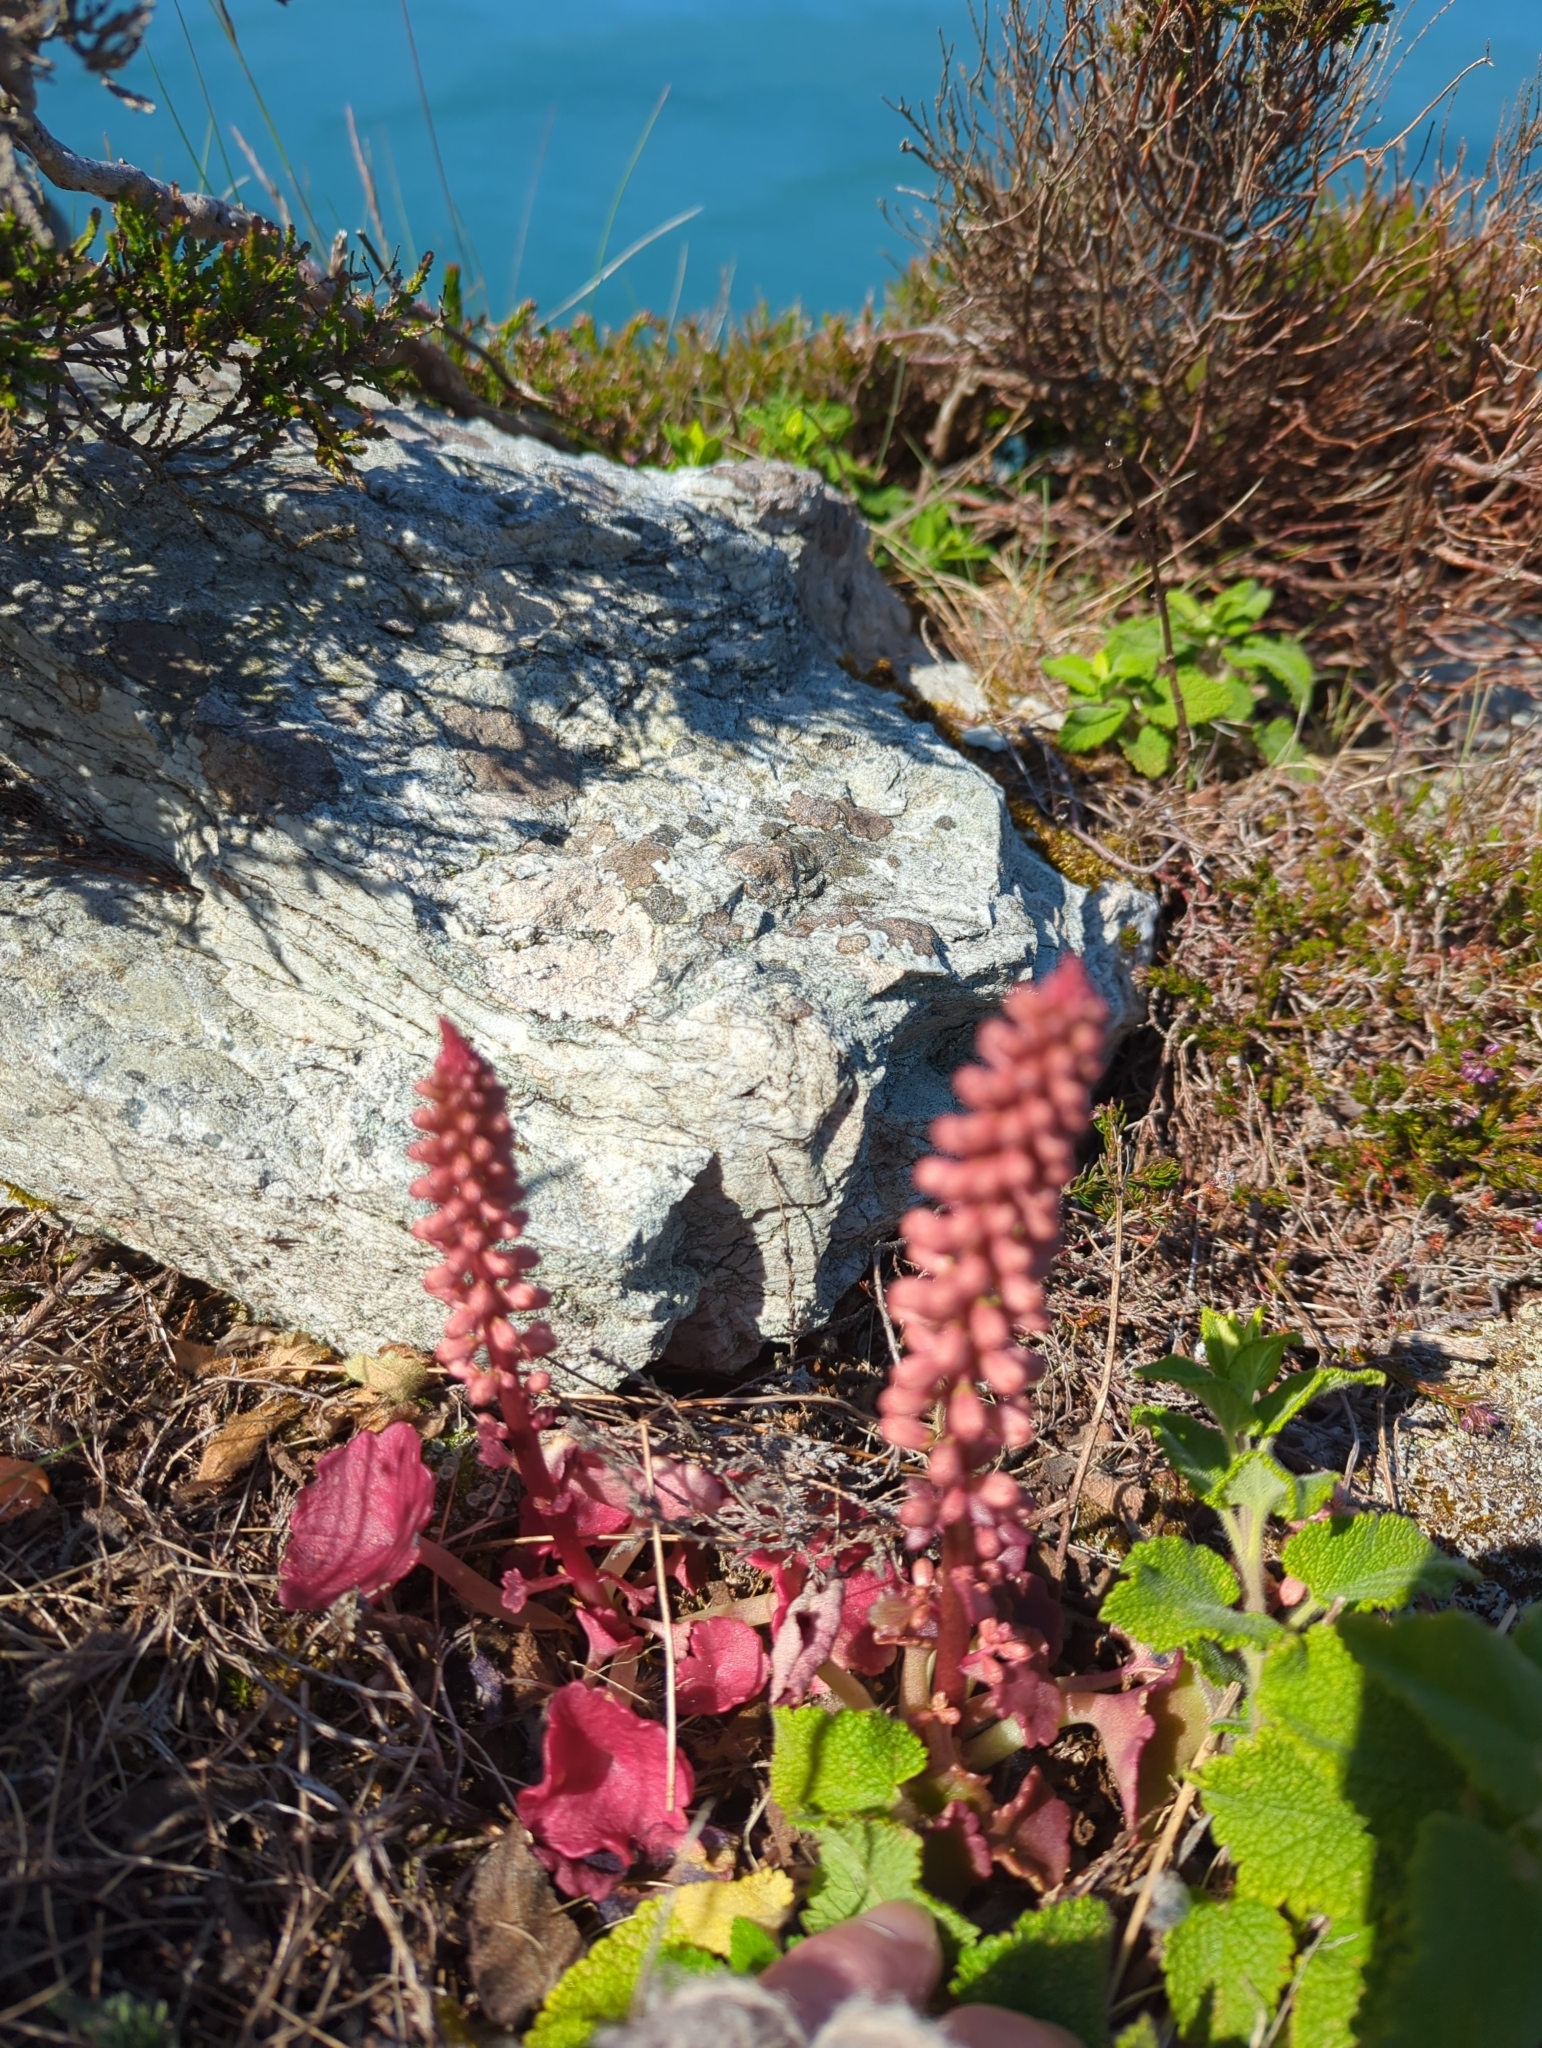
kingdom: Plantae
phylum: Tracheophyta
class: Magnoliopsida
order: Saxifragales
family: Crassulaceae
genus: Umbilicus
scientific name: Umbilicus rupestris
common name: Navelwort
